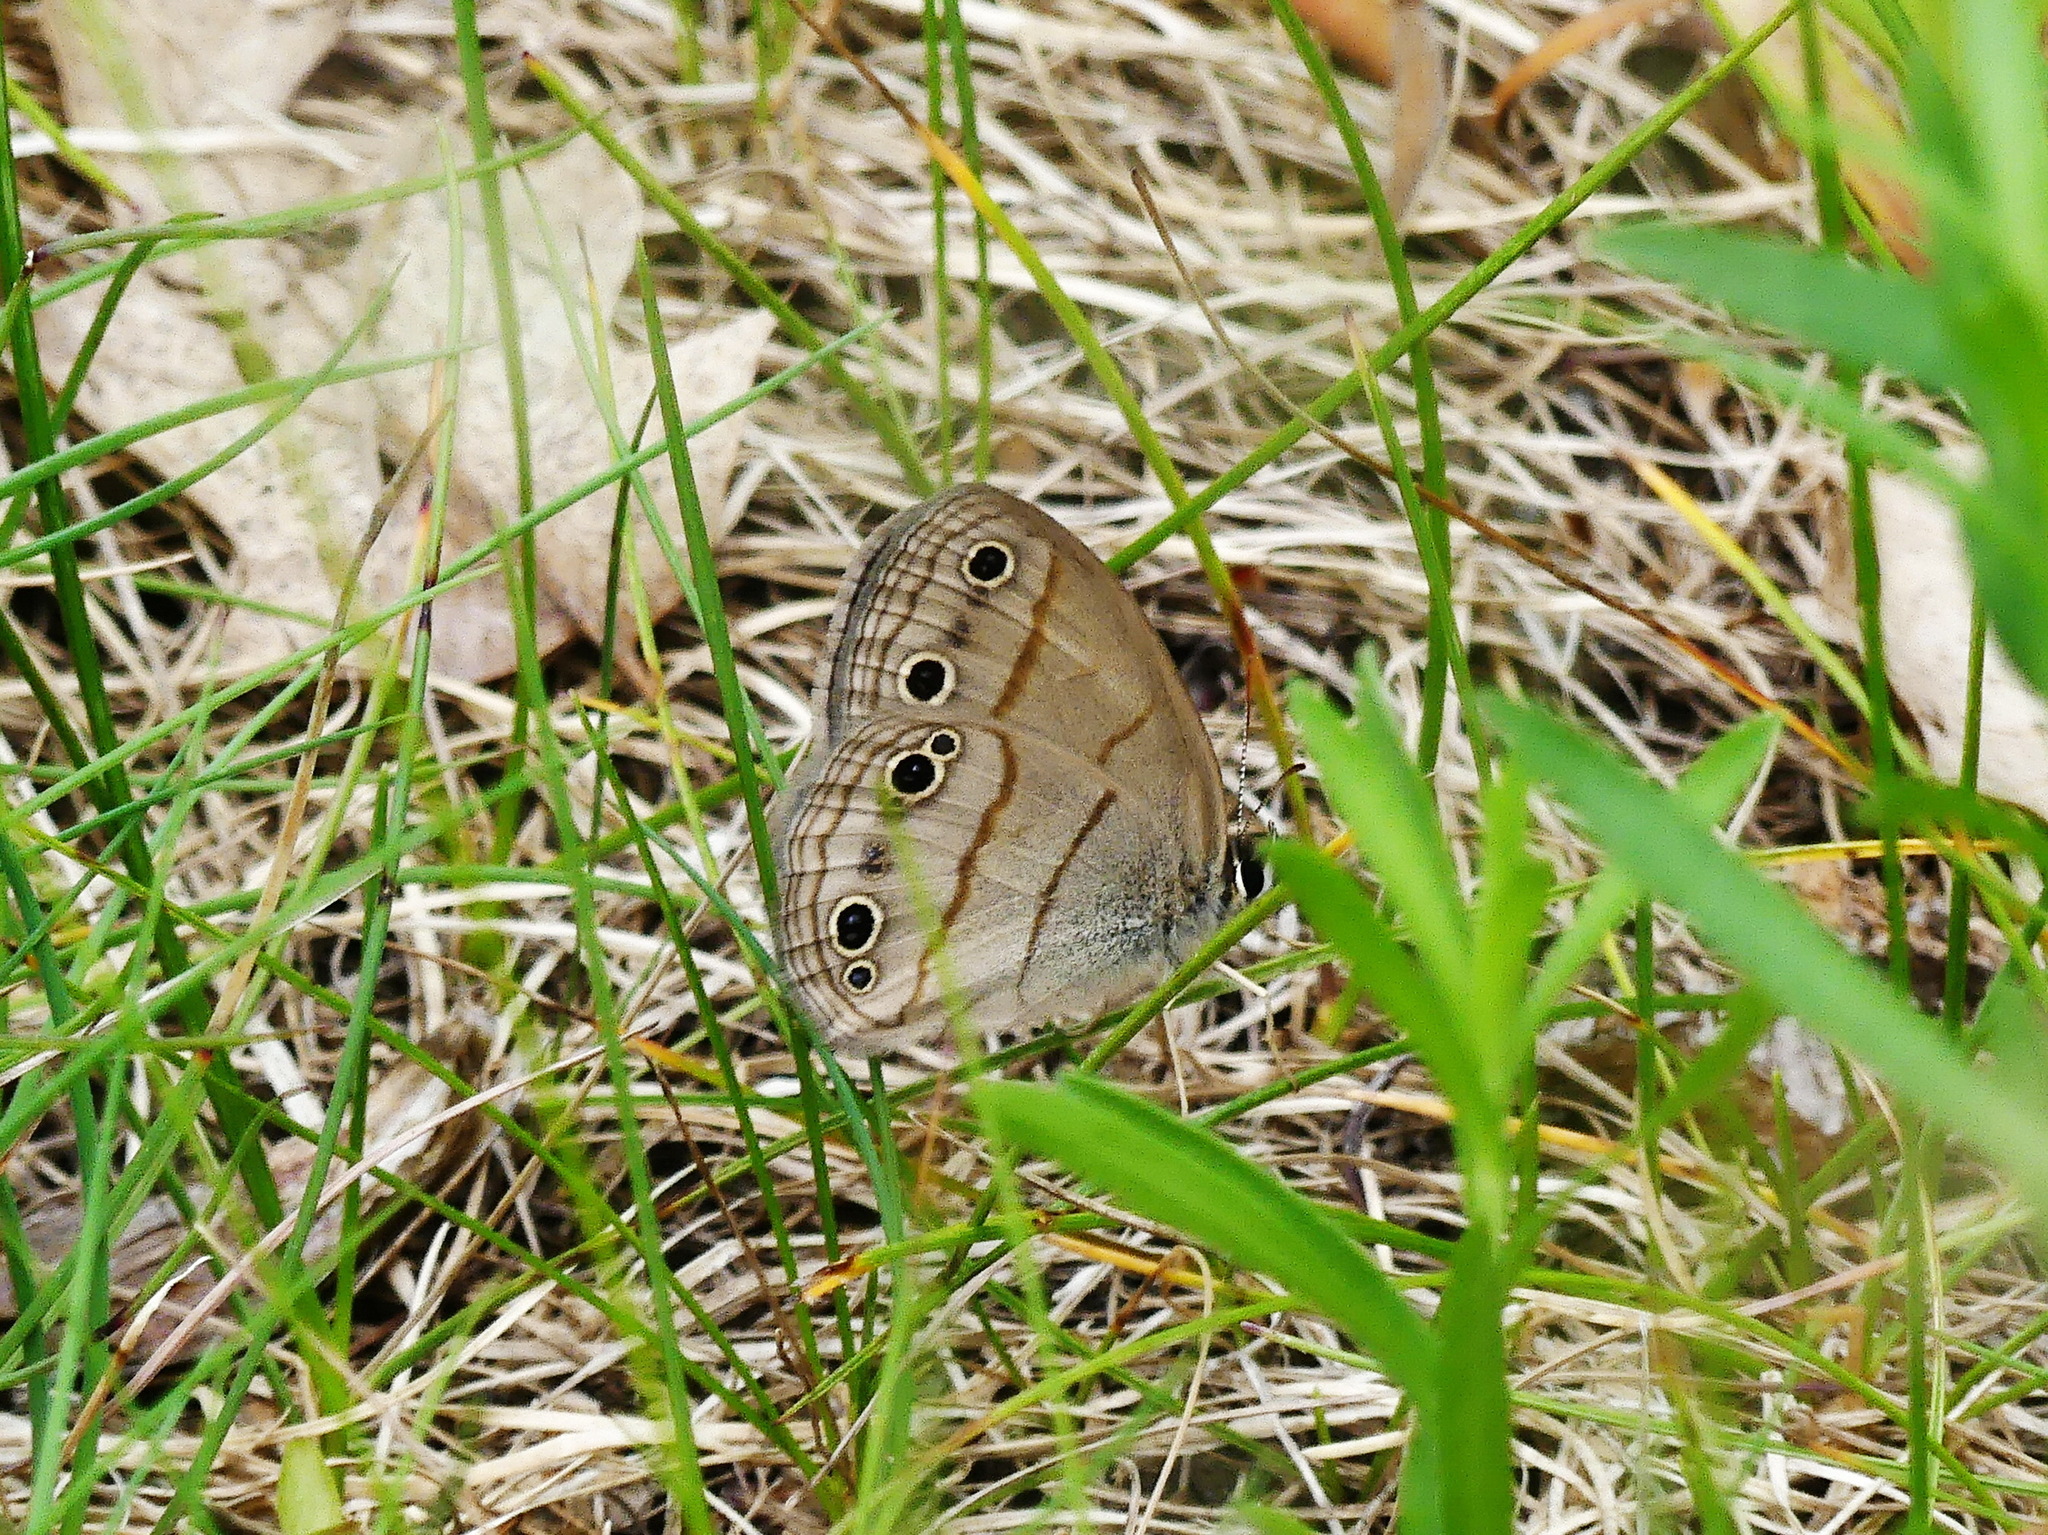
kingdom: Animalia
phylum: Arthropoda
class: Insecta
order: Lepidoptera
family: Nymphalidae
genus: Euptychia
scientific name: Euptychia cymela
